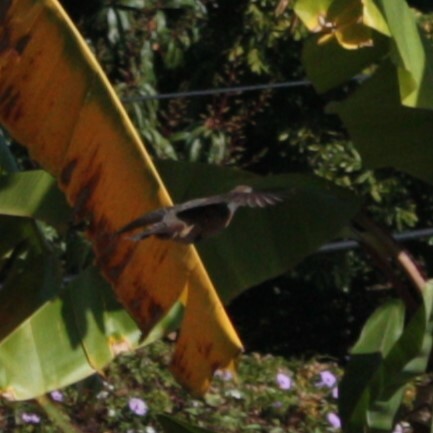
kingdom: Animalia
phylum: Chordata
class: Aves
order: Galliformes
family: Phasianidae
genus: Bambusicola
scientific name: Bambusicola sonorivox
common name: Taiwan bamboo-partridge
